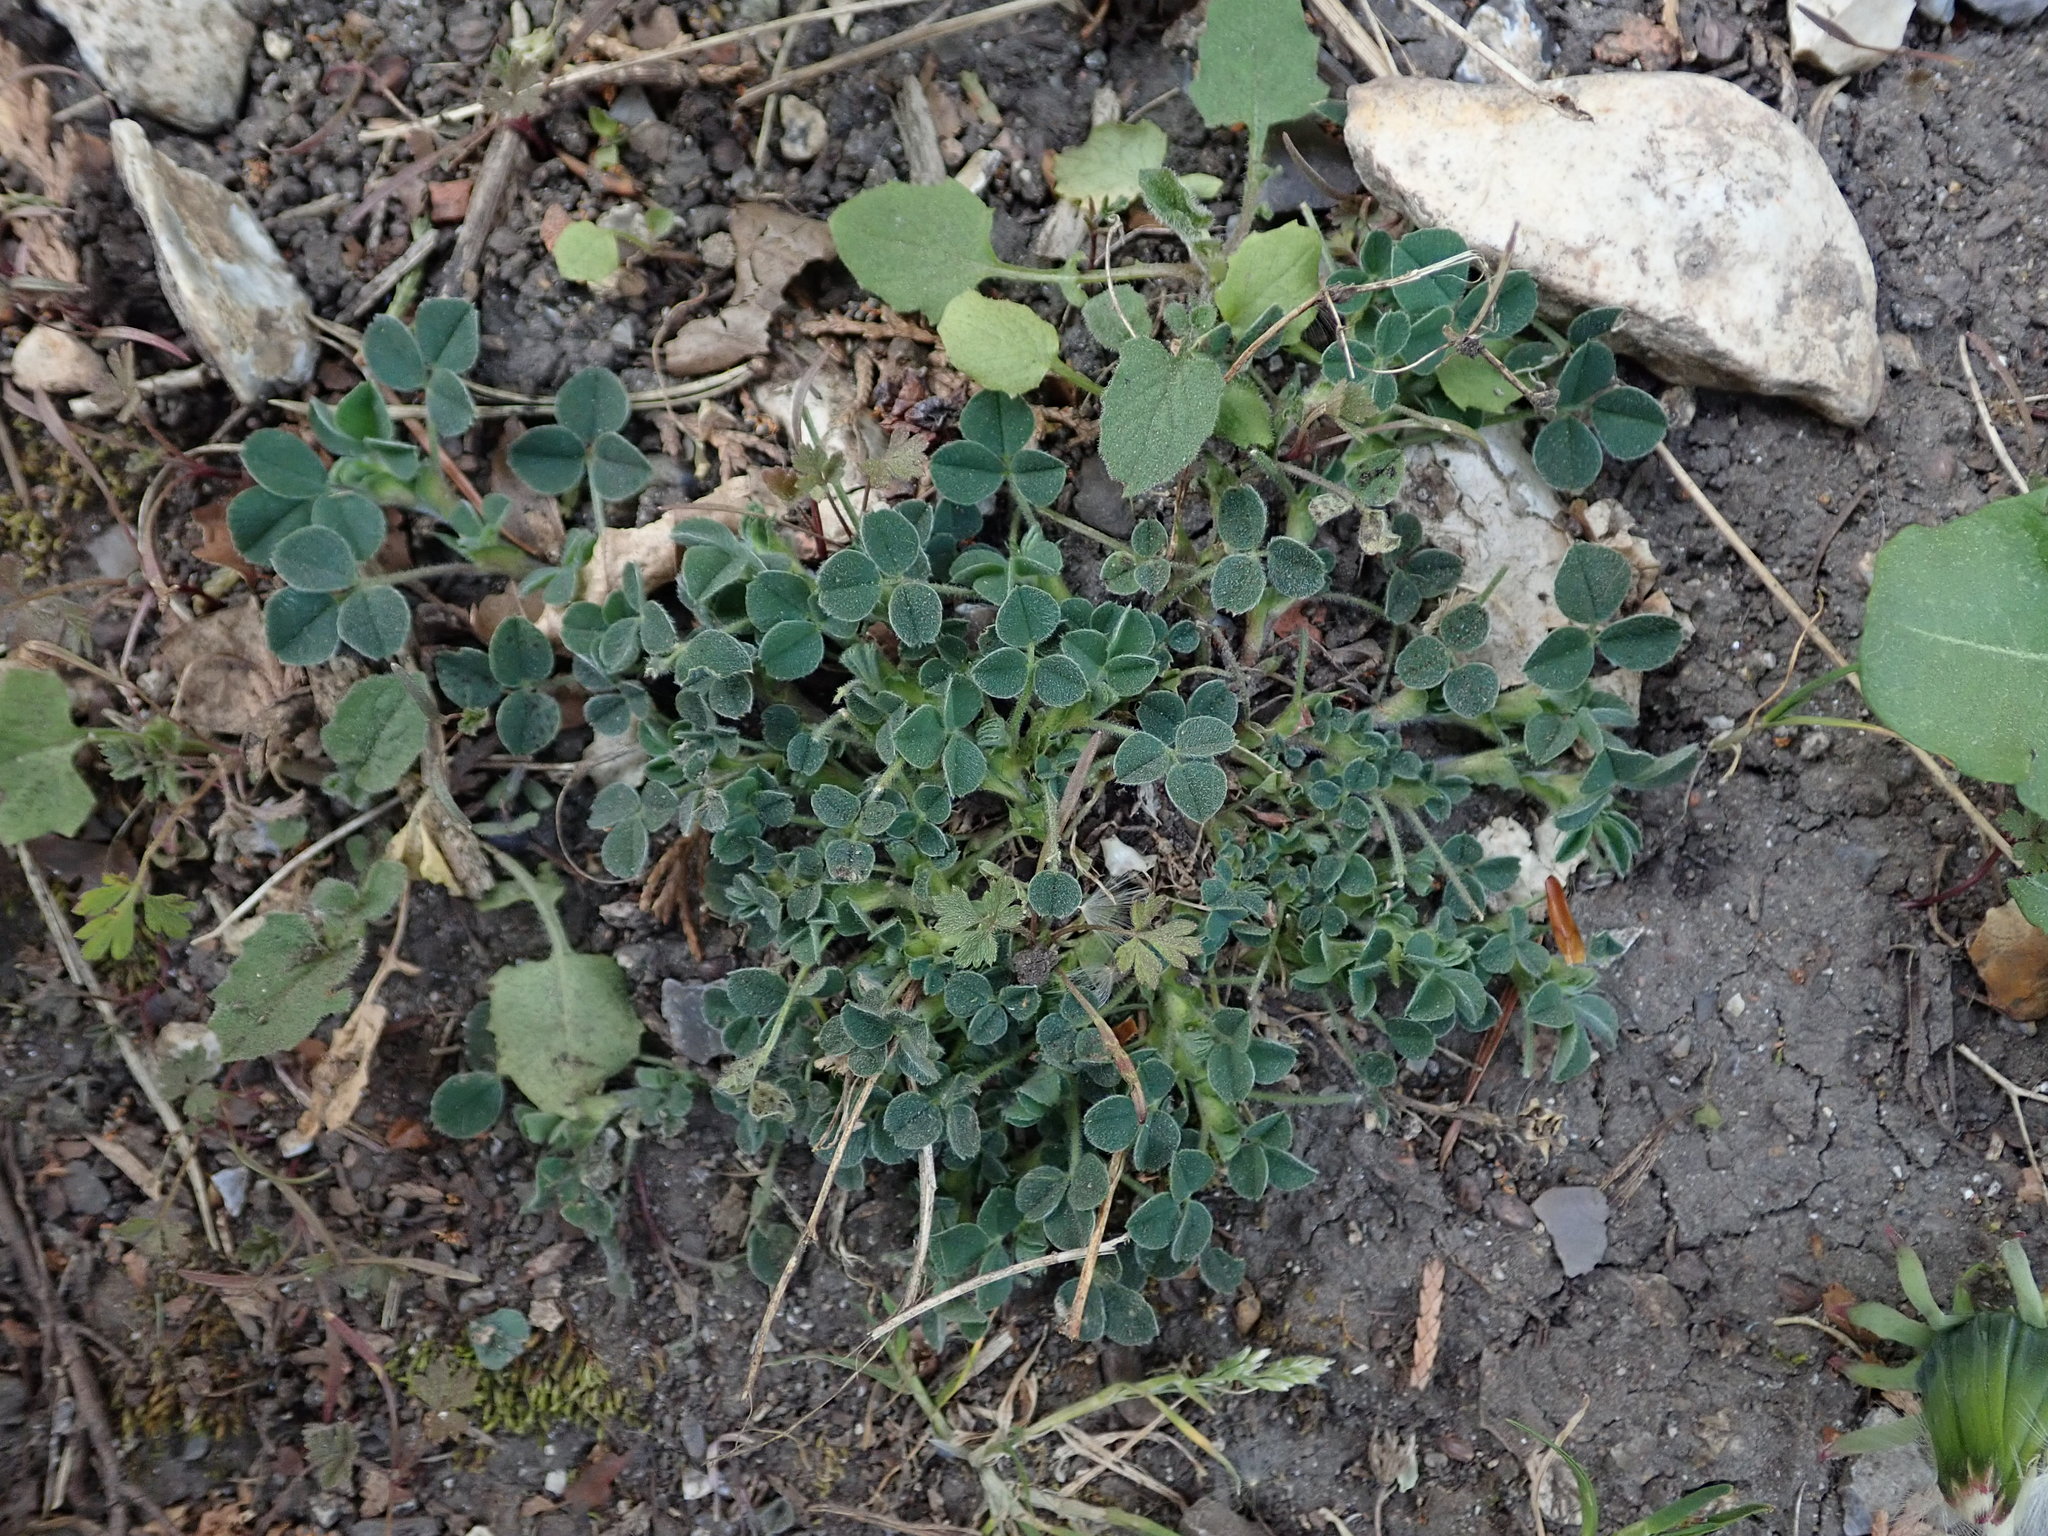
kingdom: Plantae
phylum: Tracheophyta
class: Magnoliopsida
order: Fabales
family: Fabaceae
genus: Medicago
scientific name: Medicago lupulina
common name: Black medick
